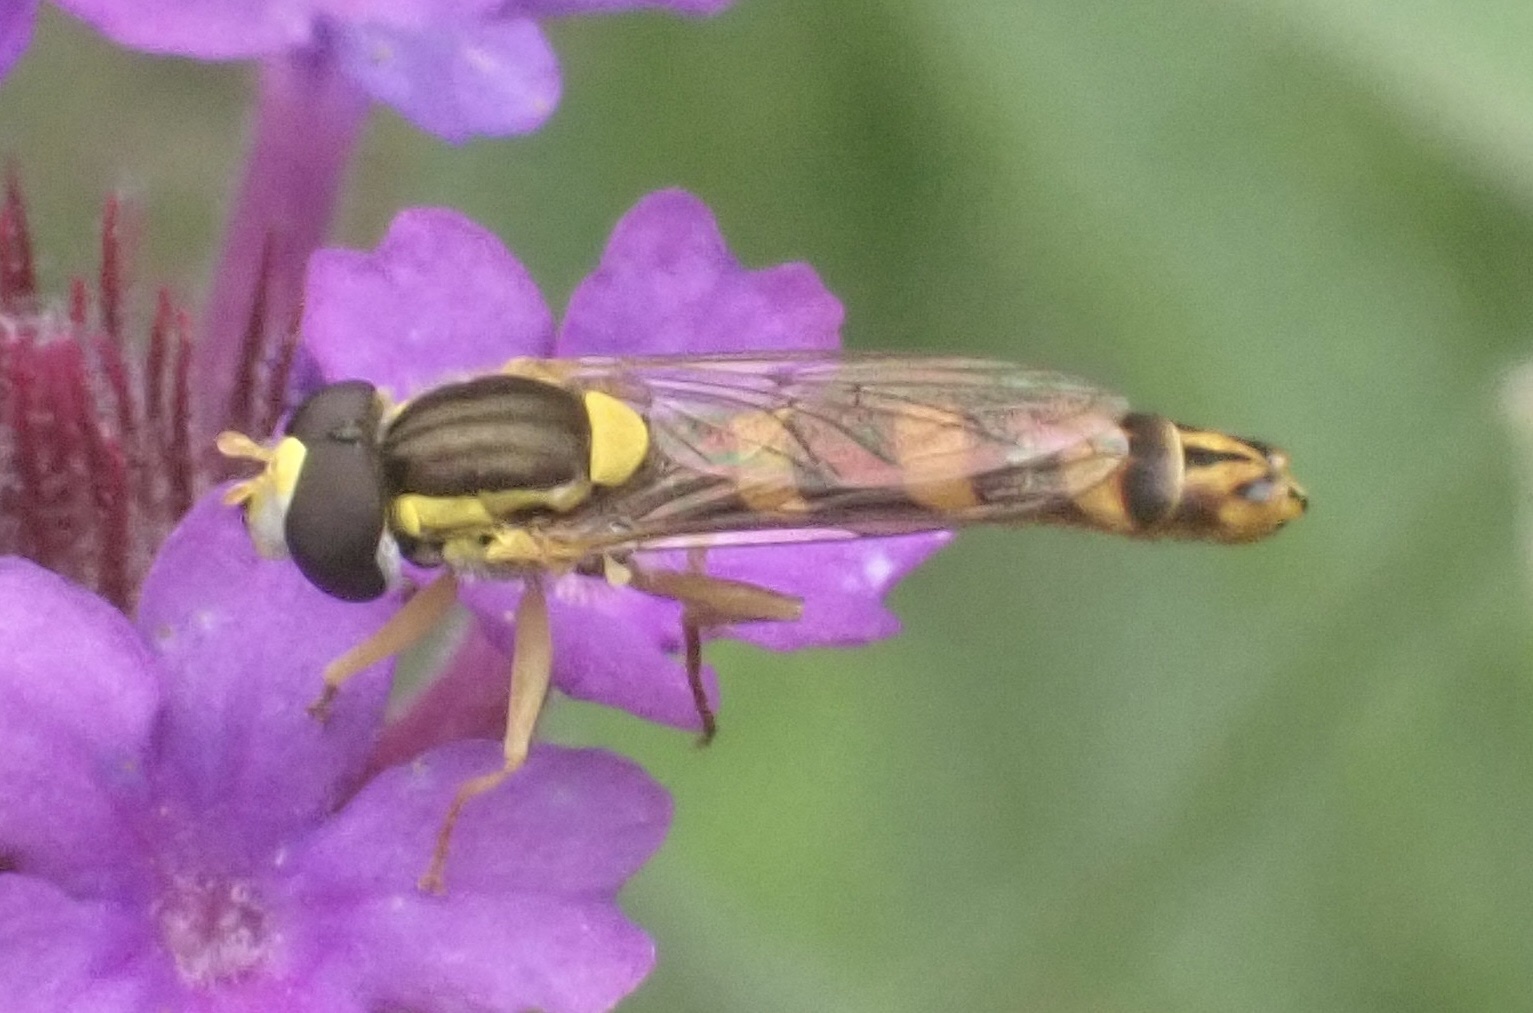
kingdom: Animalia
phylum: Arthropoda
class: Insecta
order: Diptera
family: Syrphidae
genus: Sphaerophoria
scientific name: Sphaerophoria scripta
